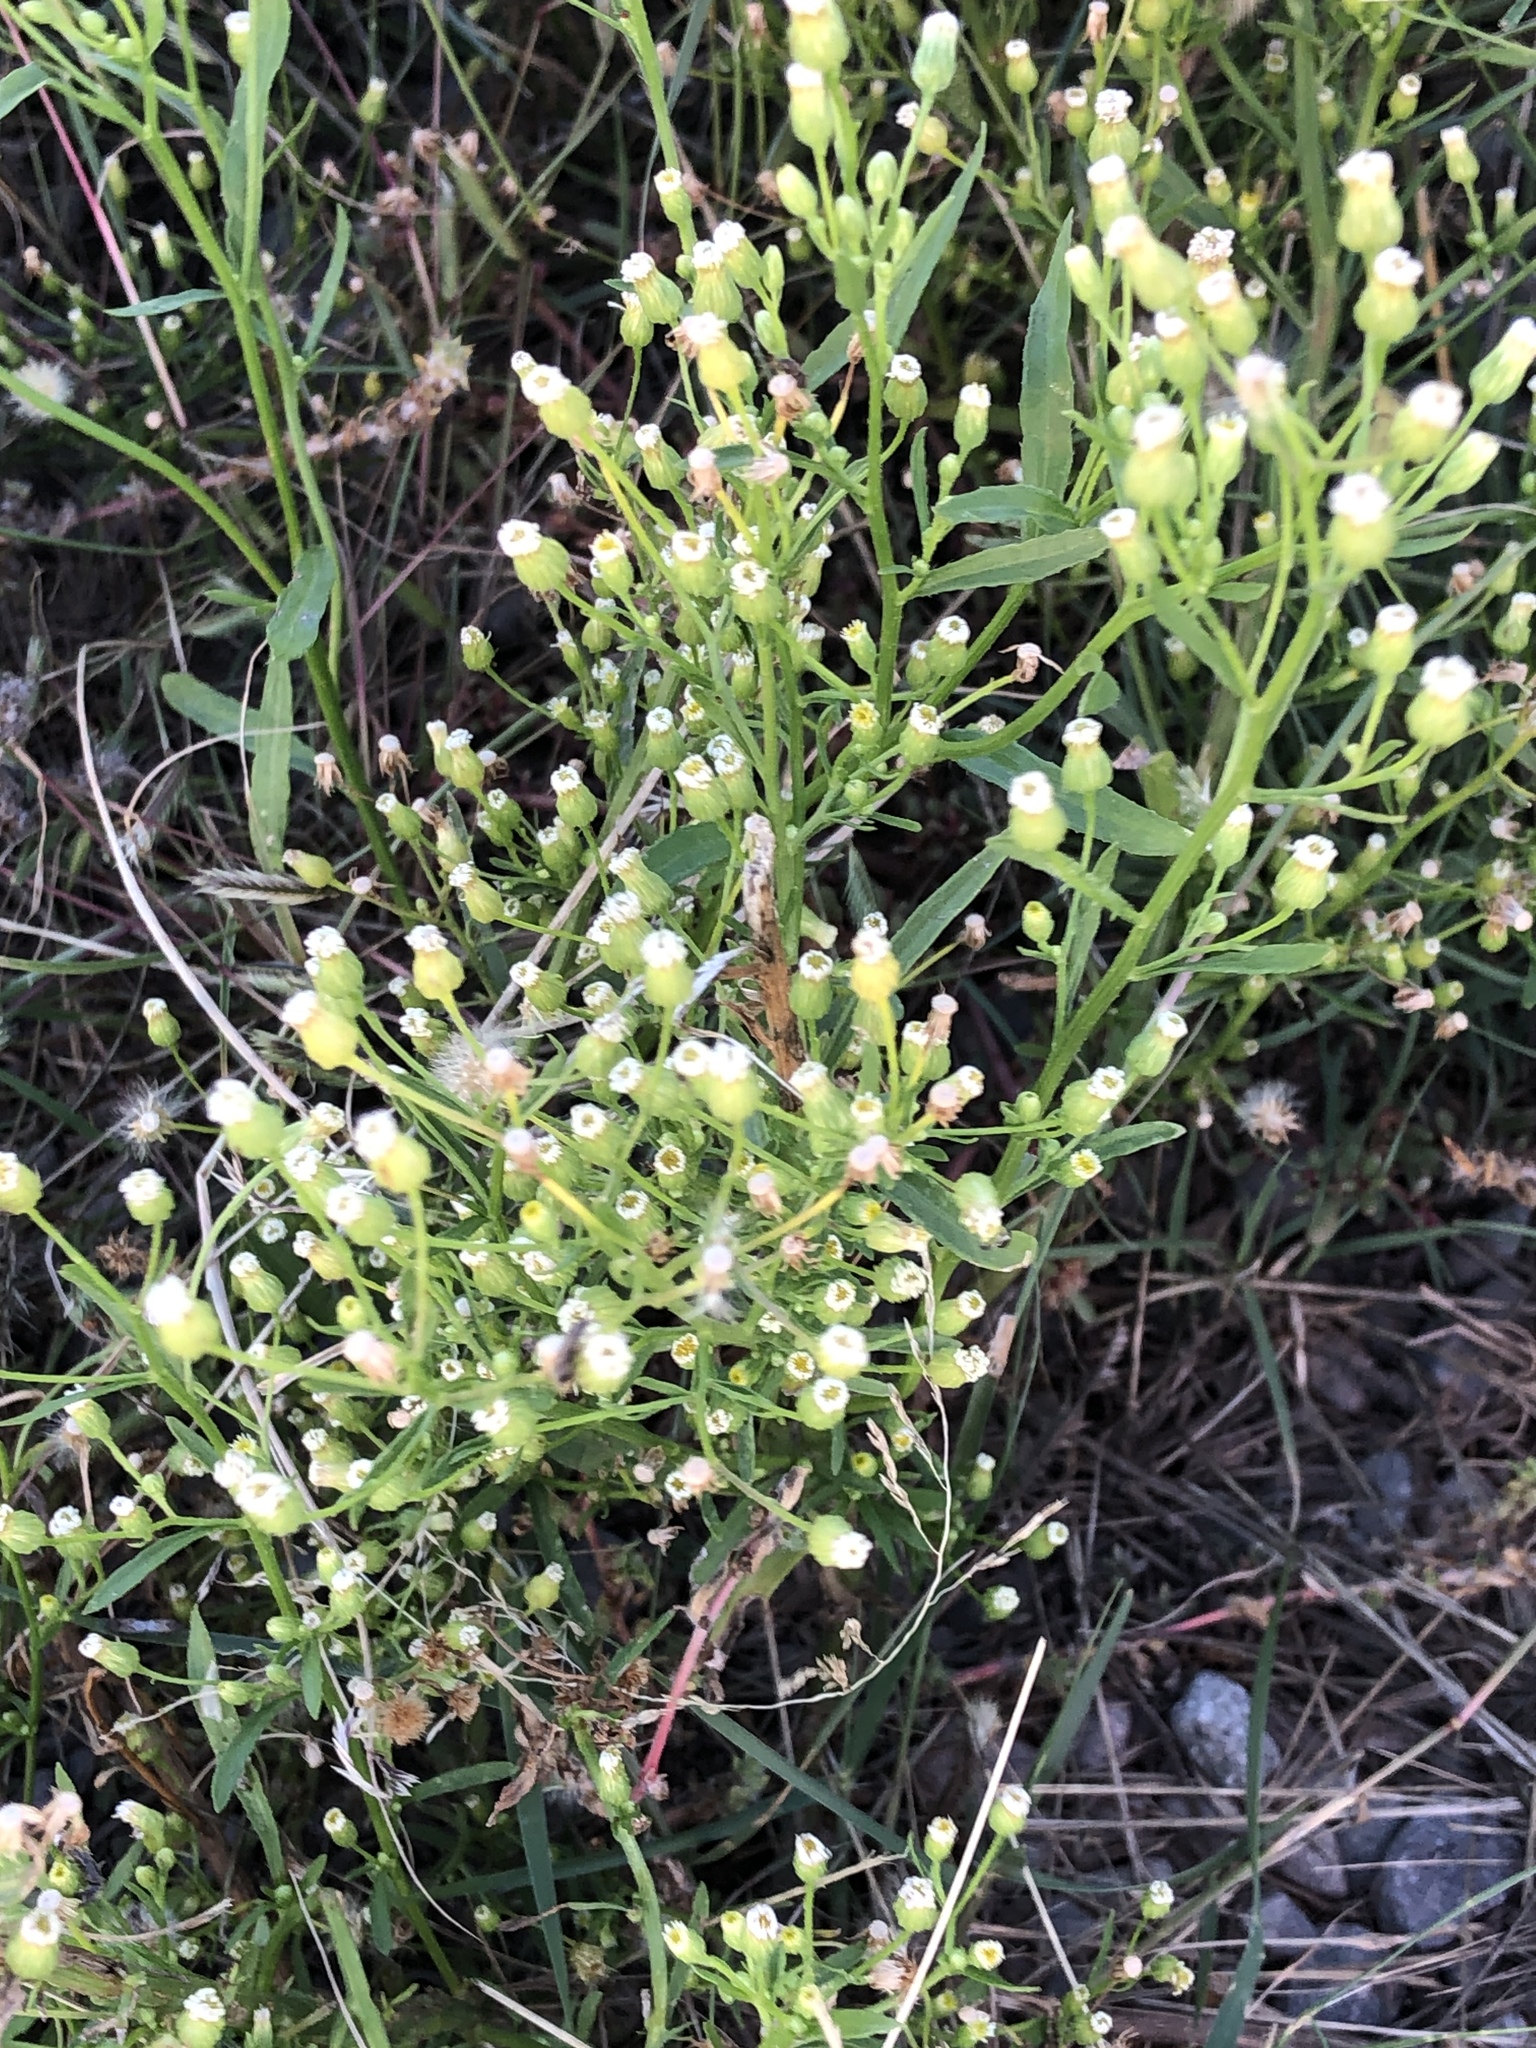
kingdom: Plantae
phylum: Tracheophyta
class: Magnoliopsida
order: Asterales
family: Asteraceae
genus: Erigeron
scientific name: Erigeron canadensis
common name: Canadian fleabane
